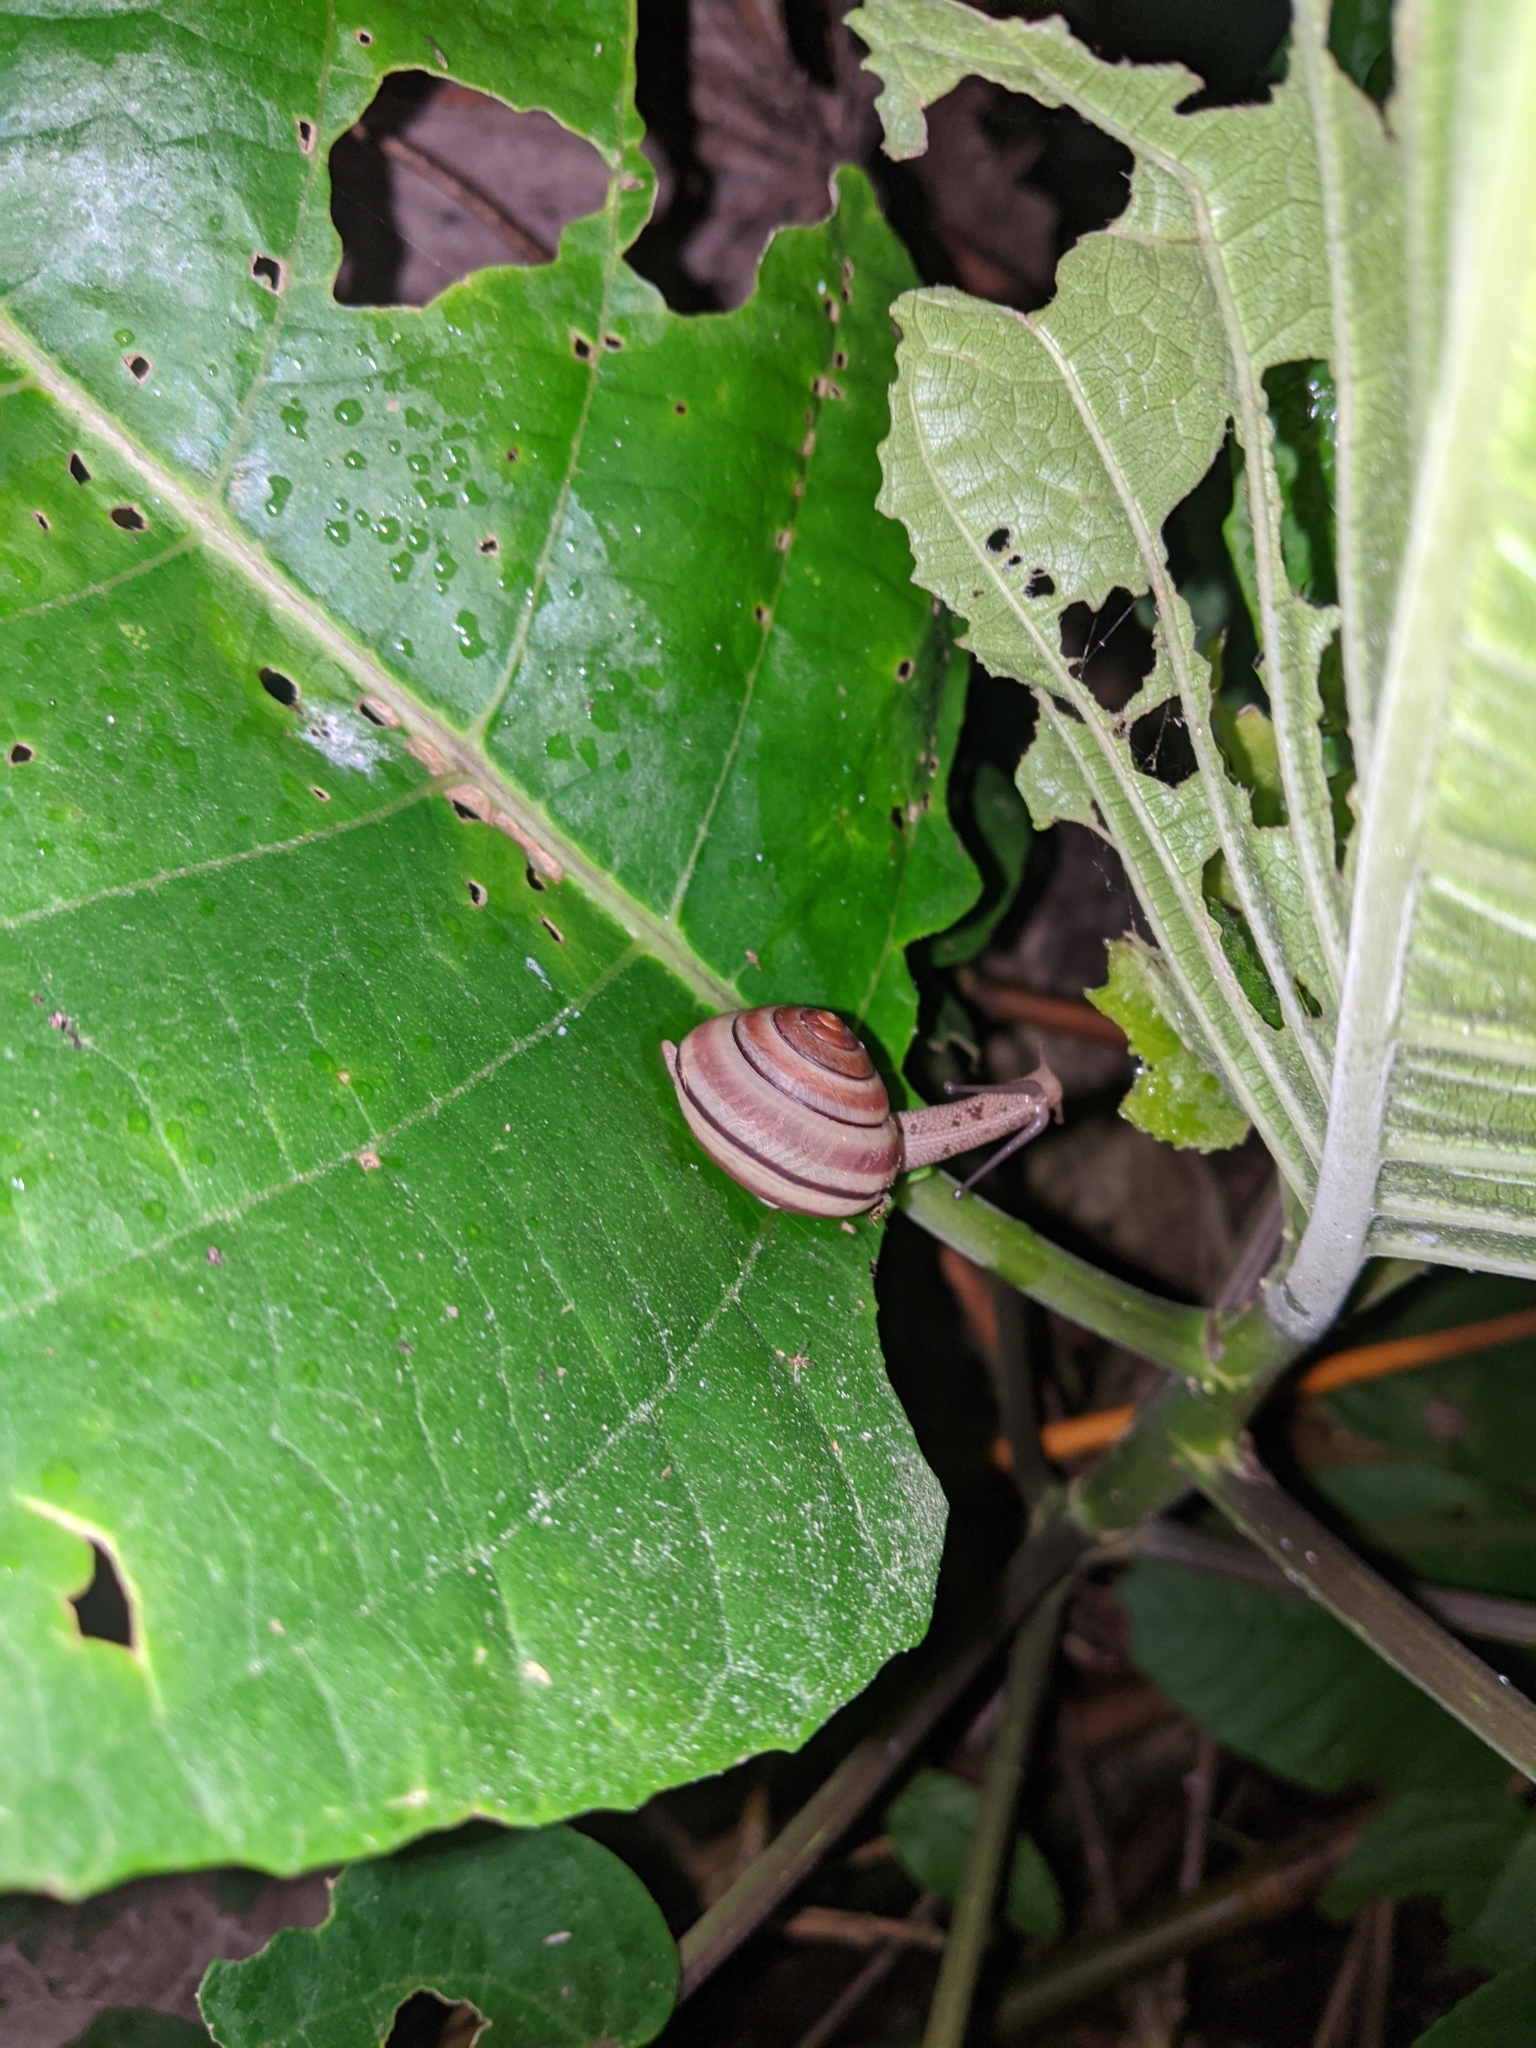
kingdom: Animalia
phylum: Mollusca
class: Gastropoda
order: Stylommatophora
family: Camaenidae
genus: Satsuma
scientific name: Satsuma wenshini
